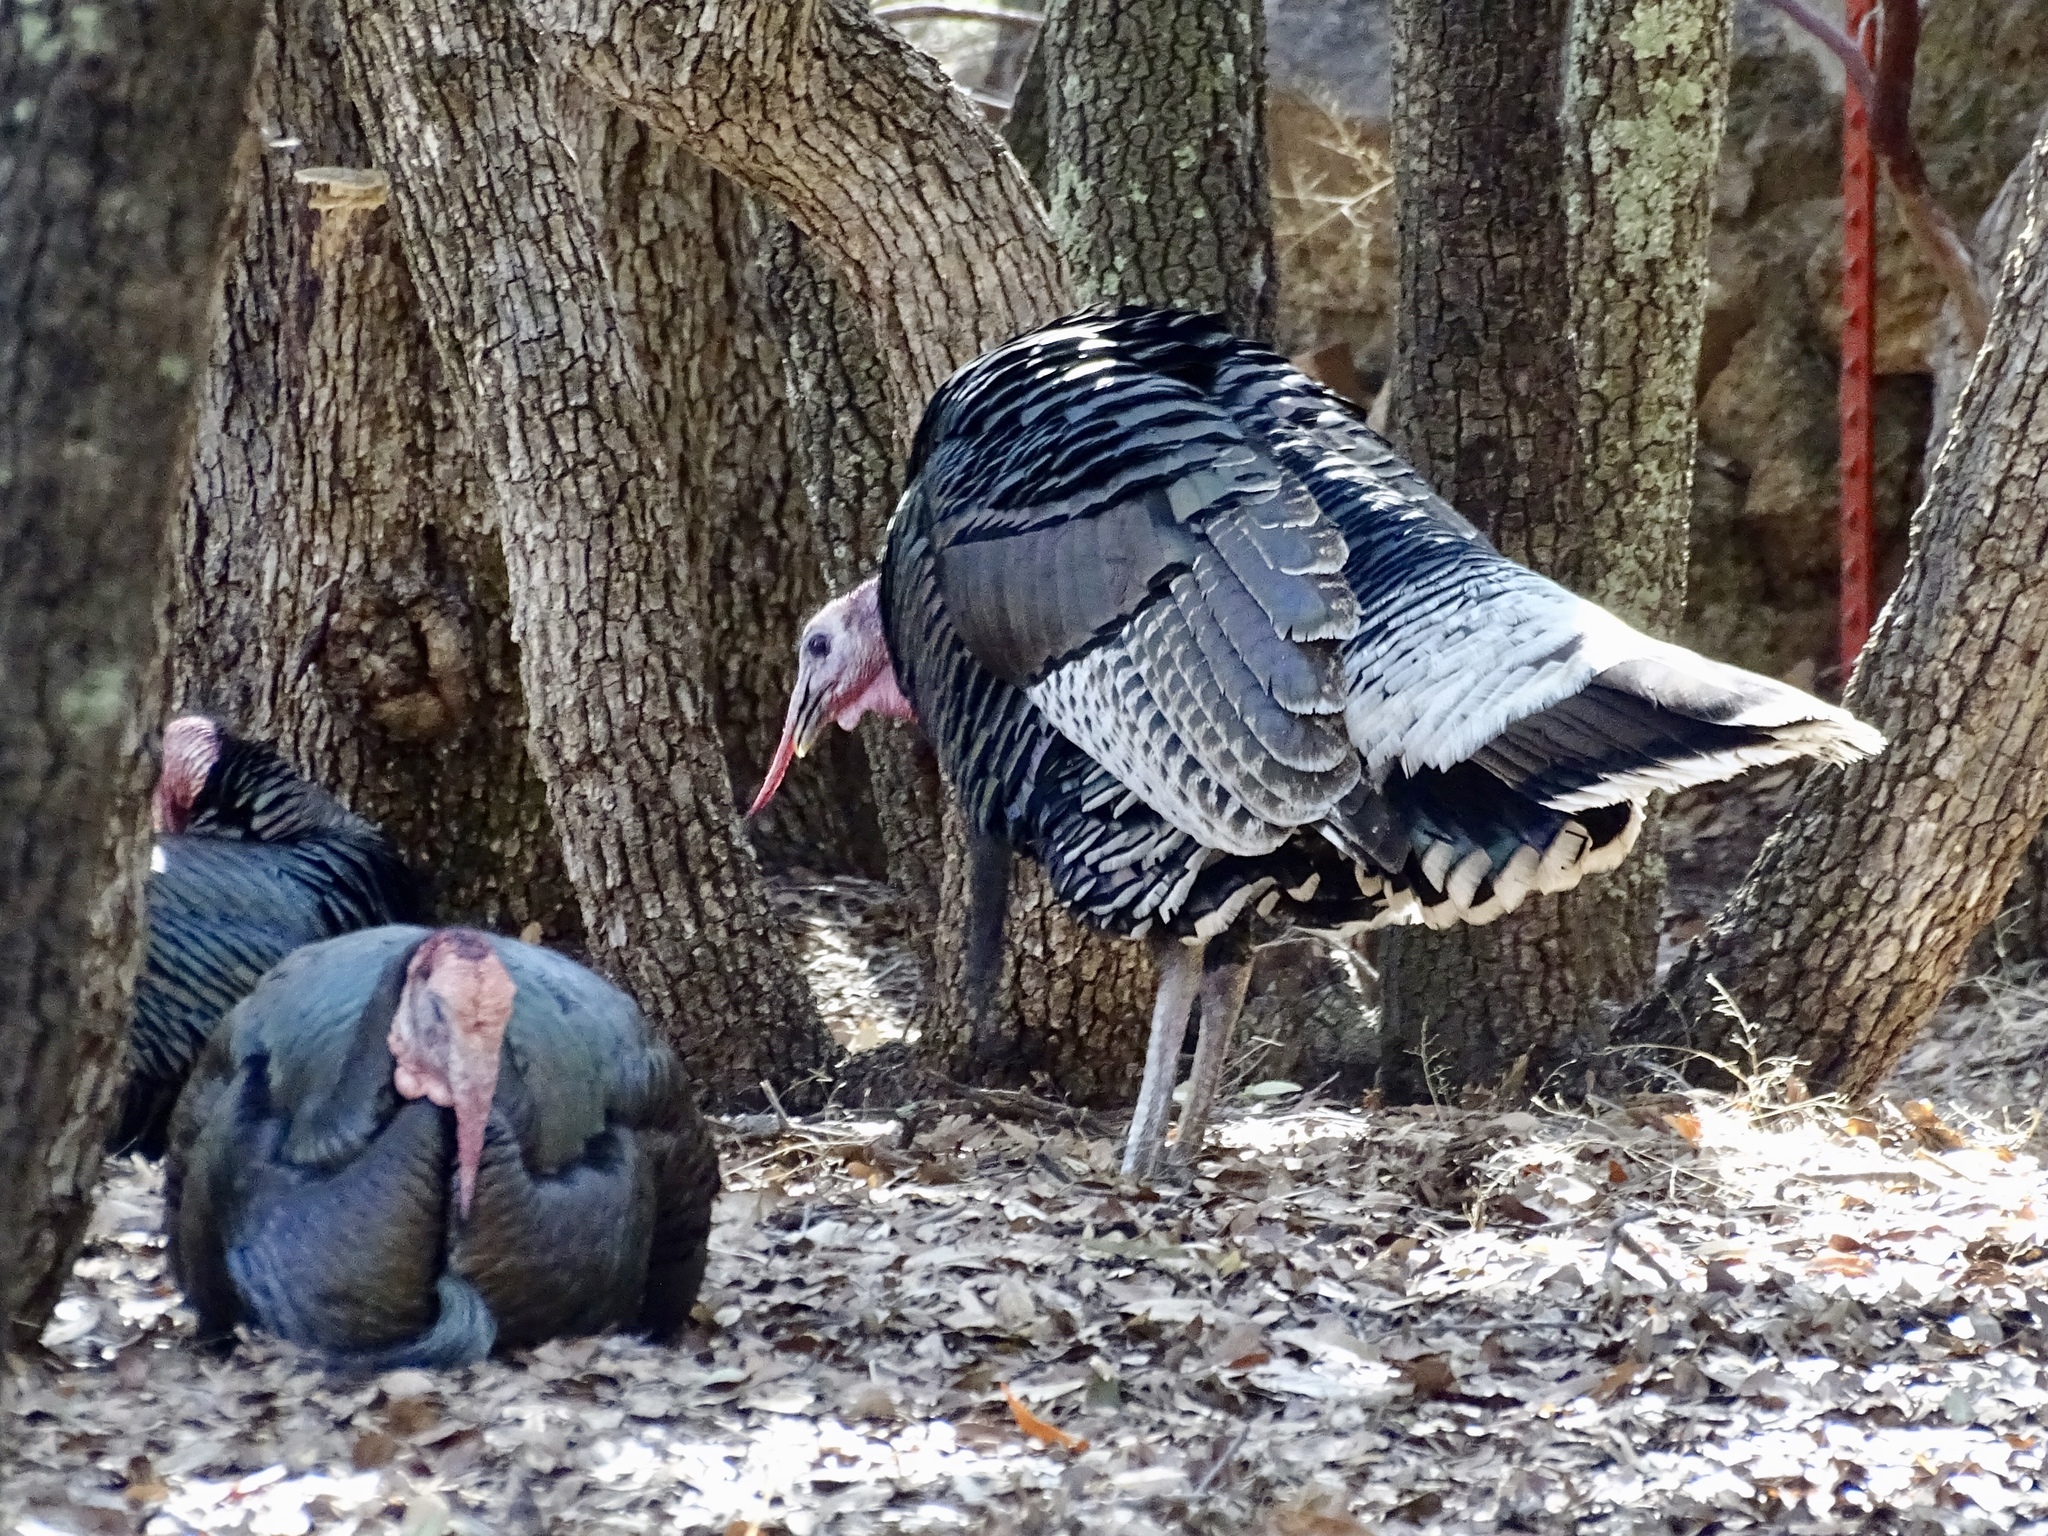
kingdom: Animalia
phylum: Chordata
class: Aves
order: Galliformes
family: Phasianidae
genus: Meleagris
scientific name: Meleagris gallopavo
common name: Wild turkey
